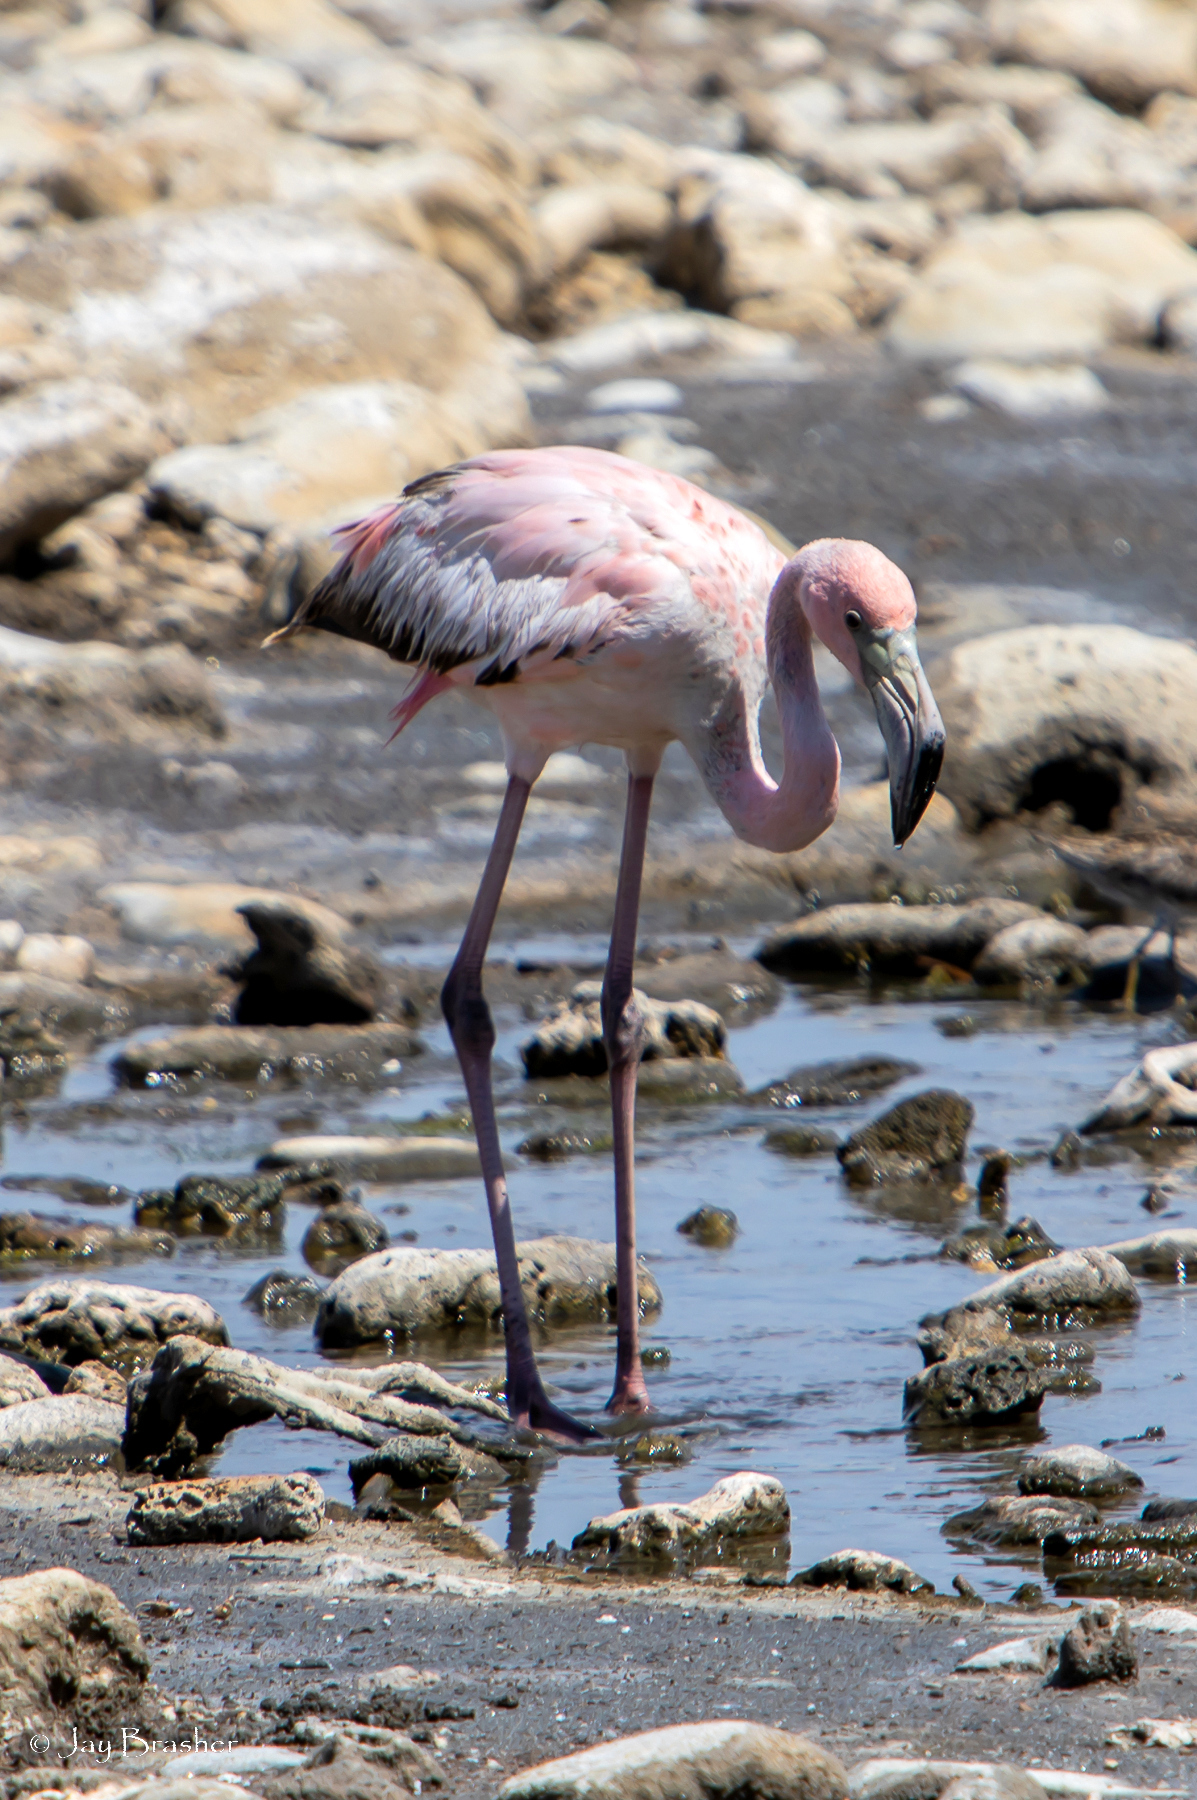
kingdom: Animalia
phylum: Chordata
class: Aves
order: Phoenicopteriformes
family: Phoenicopteridae
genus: Phoenicopterus
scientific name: Phoenicopterus ruber
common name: American flamingo
